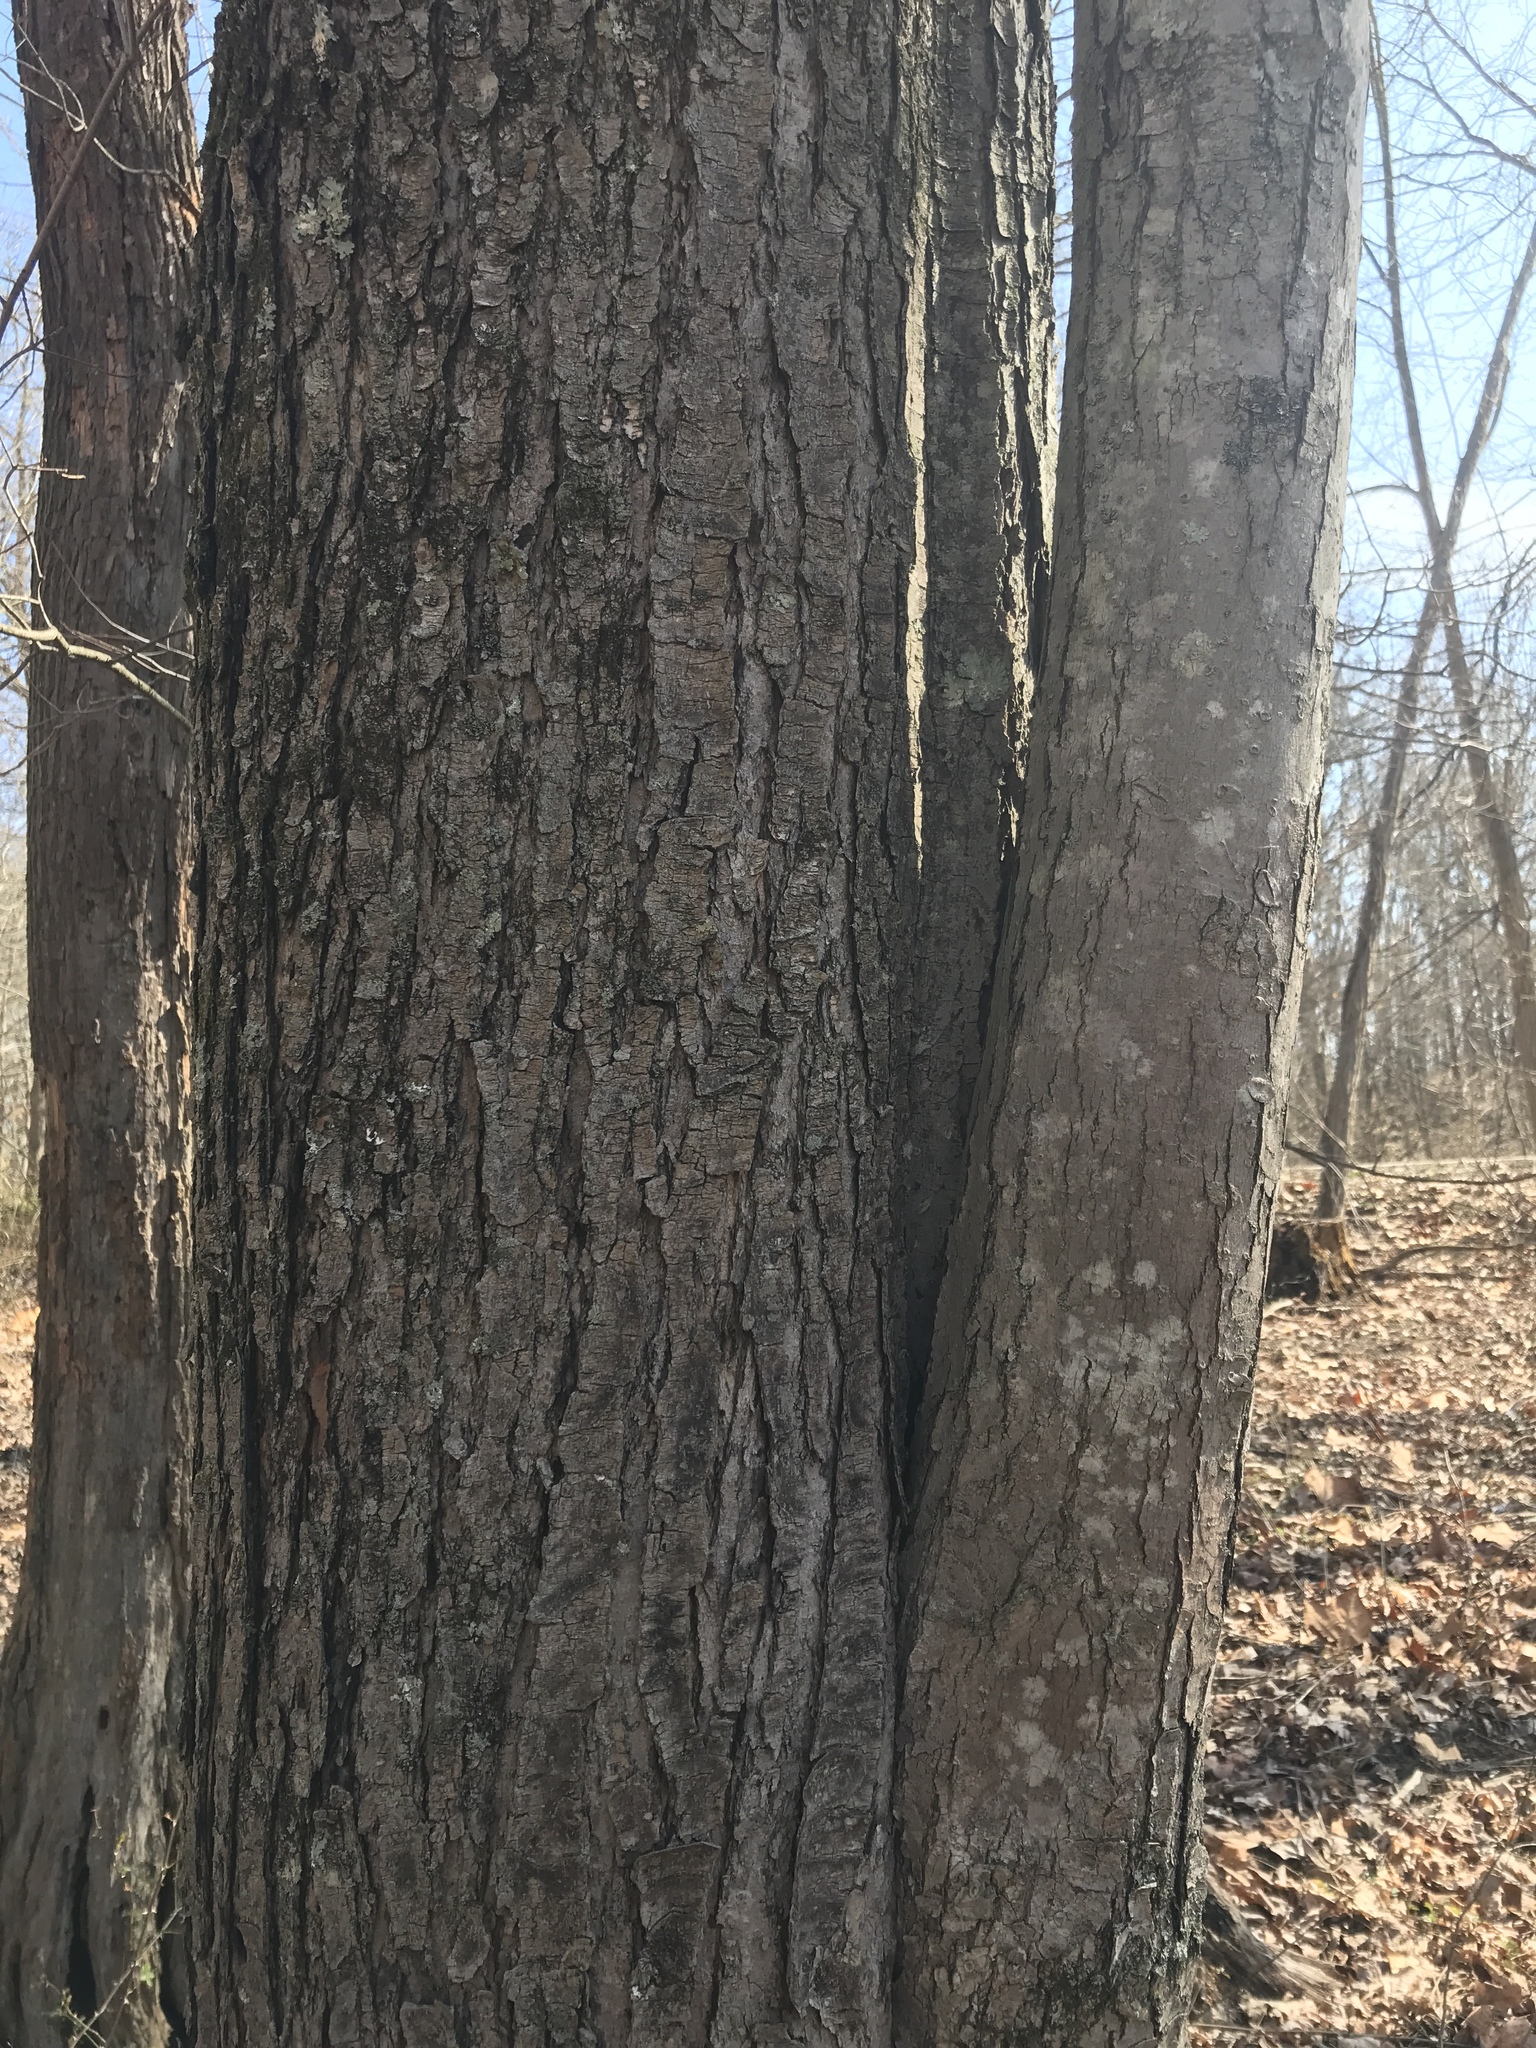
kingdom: Plantae
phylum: Tracheophyta
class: Magnoliopsida
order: Sapindales
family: Sapindaceae
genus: Acer
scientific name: Acer rubrum
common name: Red maple
